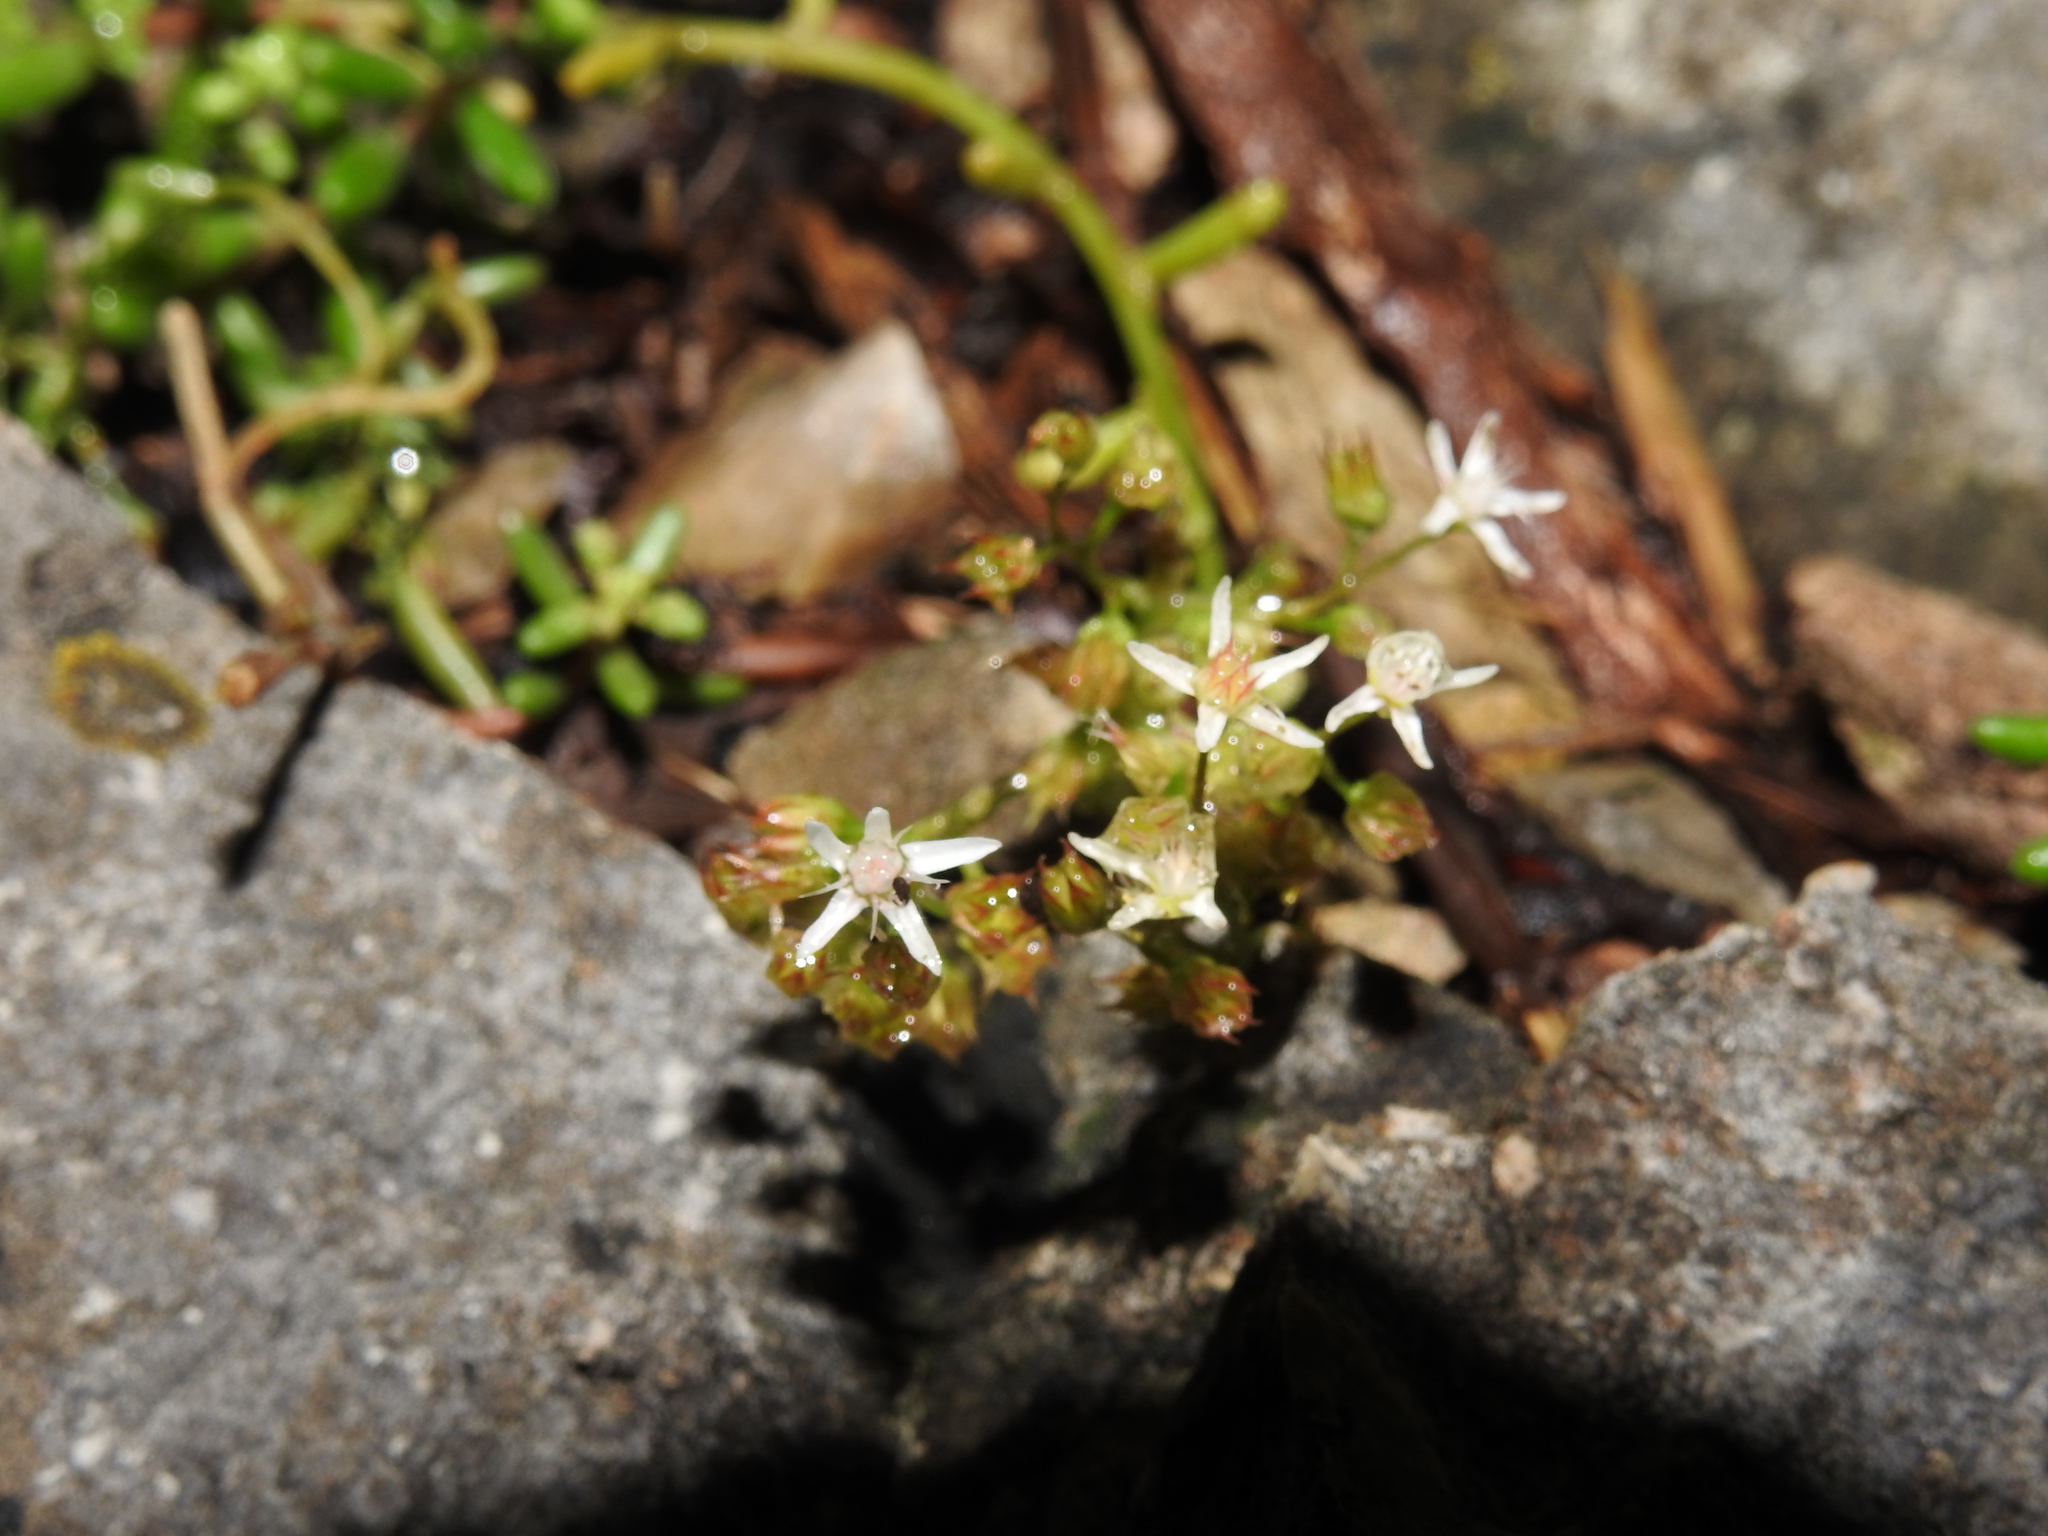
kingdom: Plantae
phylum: Tracheophyta
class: Magnoliopsida
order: Saxifragales
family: Crassulaceae
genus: Sedum
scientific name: Sedum album
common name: White stonecrop
